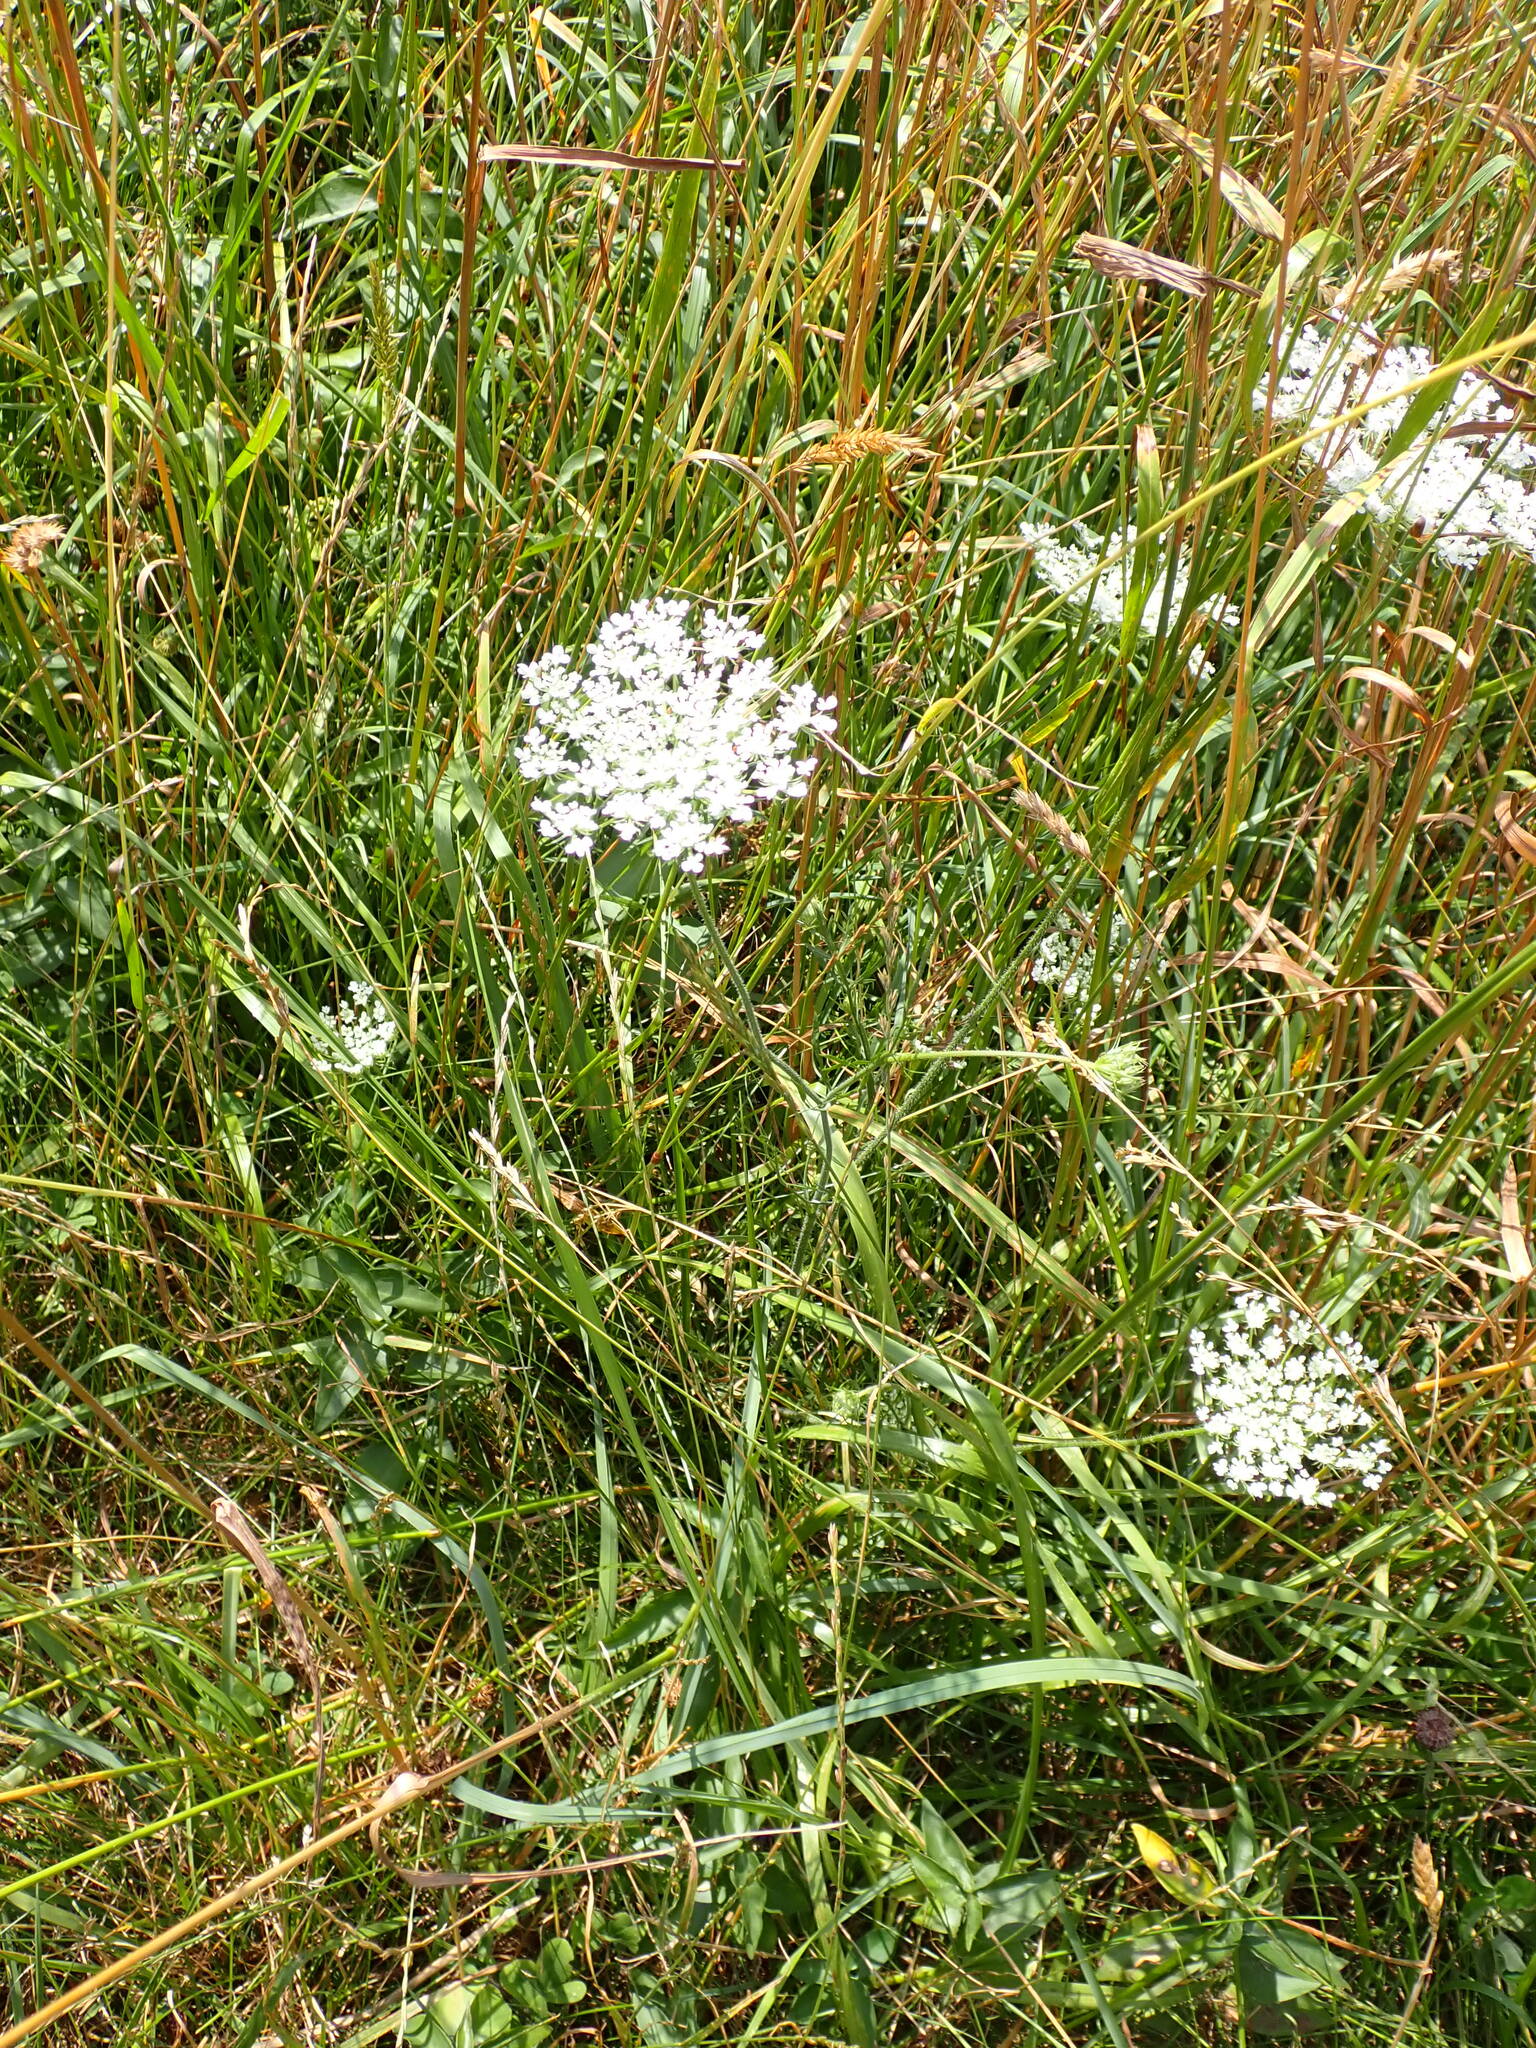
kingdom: Plantae
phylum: Tracheophyta
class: Magnoliopsida
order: Apiales
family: Apiaceae
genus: Daucus
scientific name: Daucus carota
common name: Wild carrot
